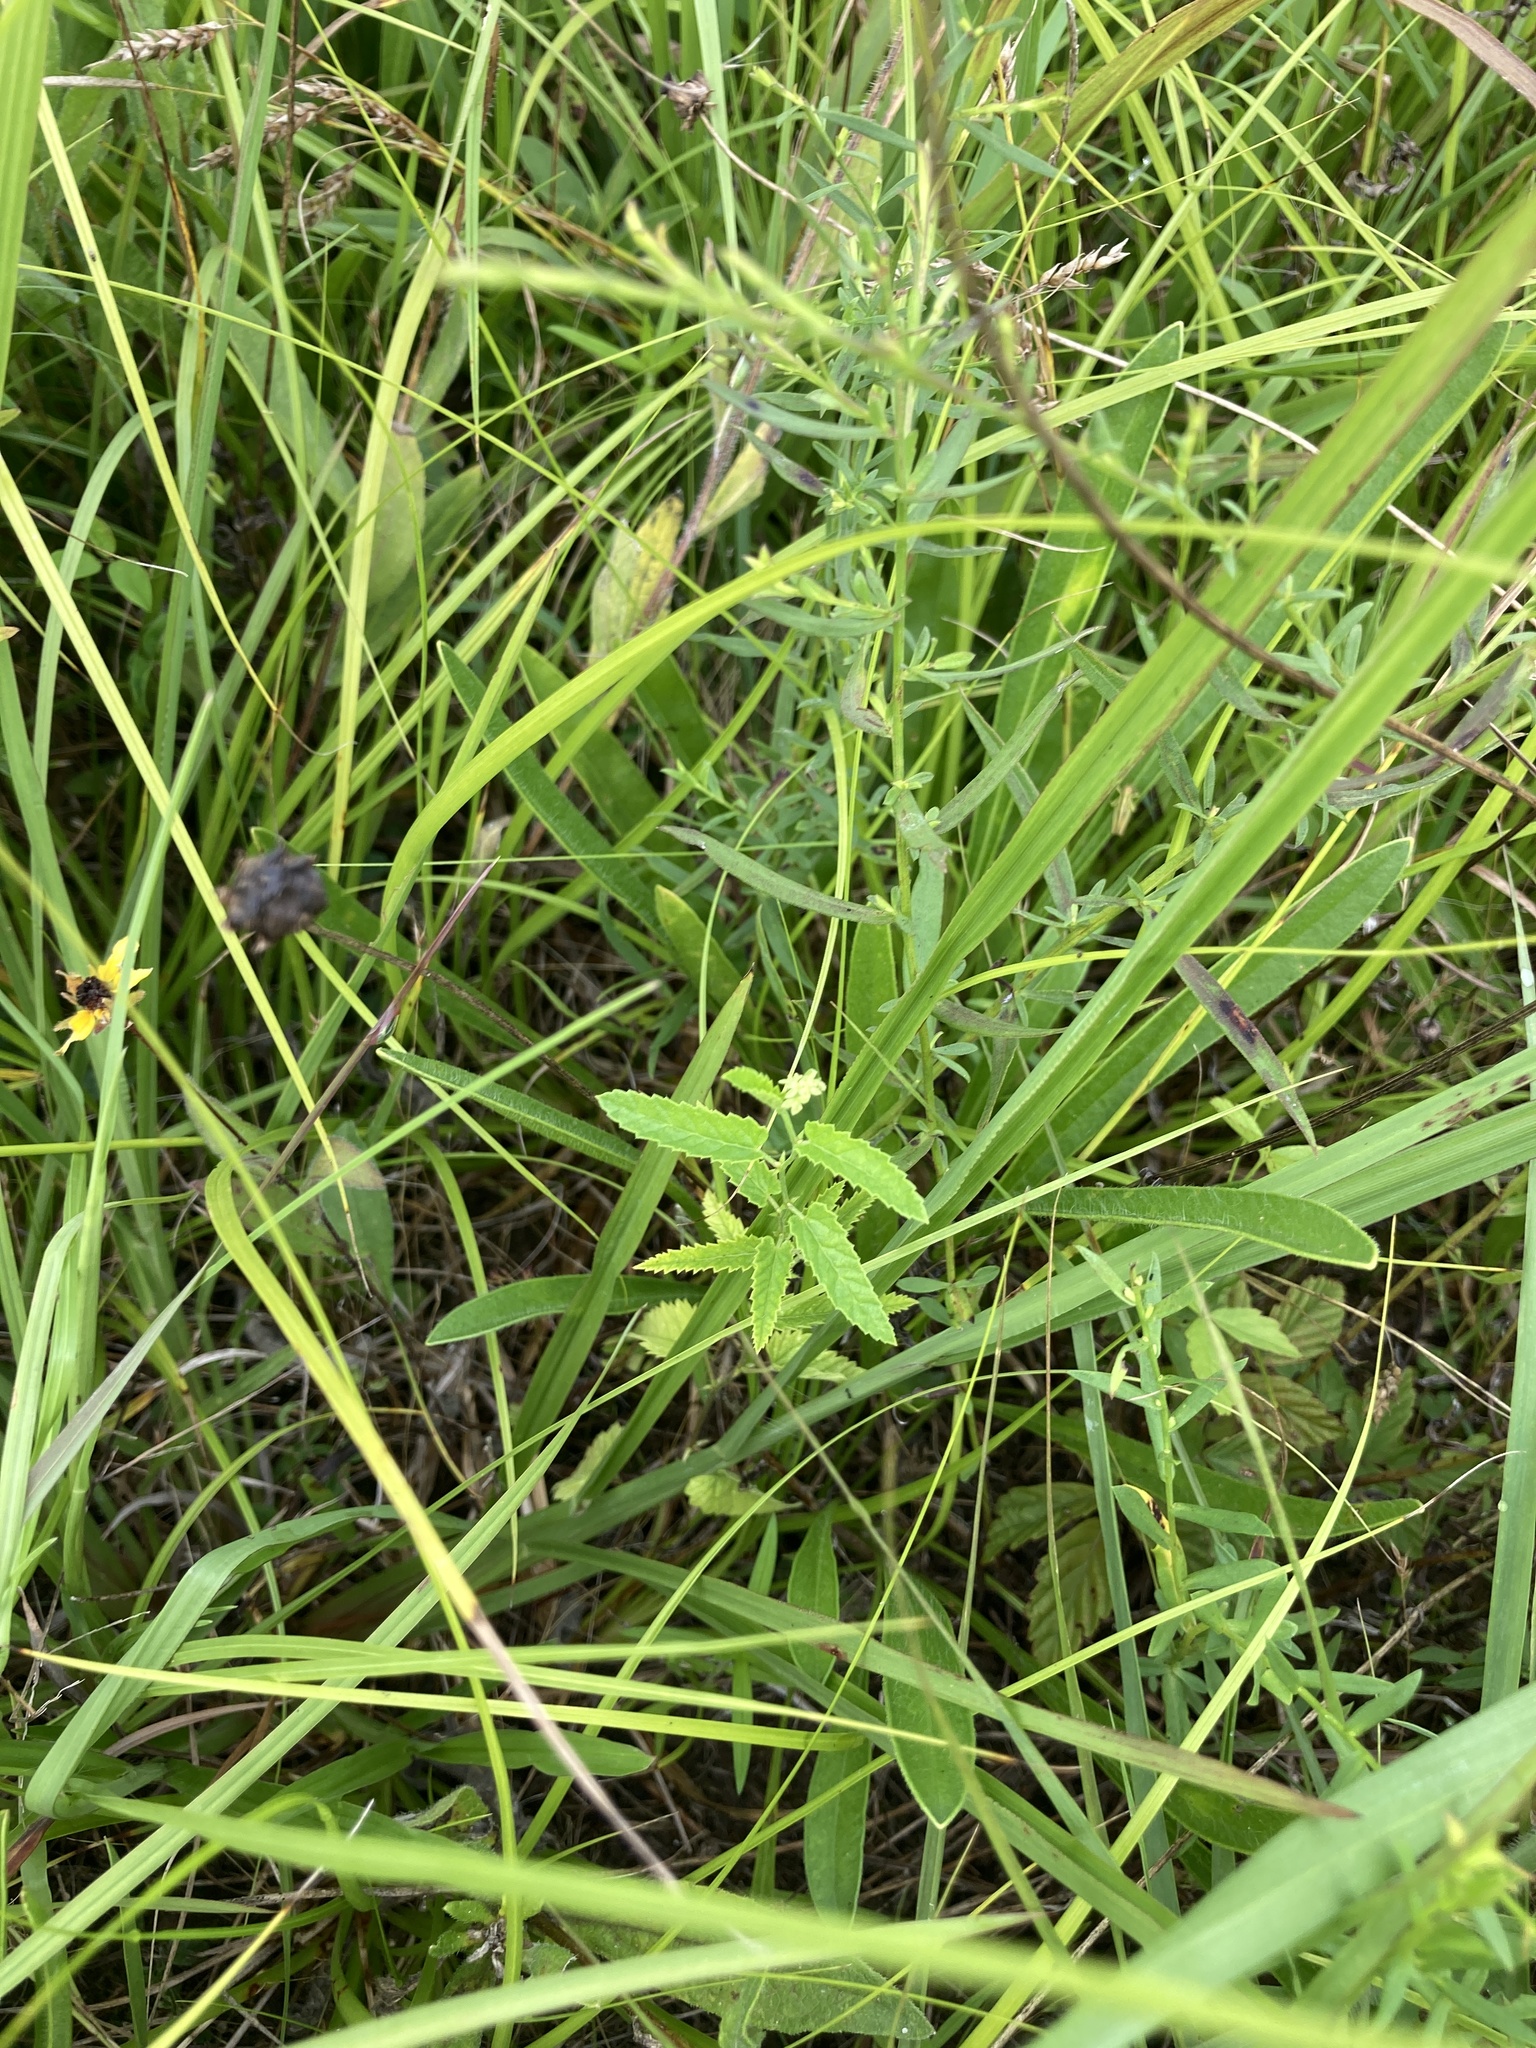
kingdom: Plantae
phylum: Tracheophyta
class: Magnoliopsida
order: Malpighiales
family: Euphorbiaceae
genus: Tragia
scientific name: Tragia urticifolia
